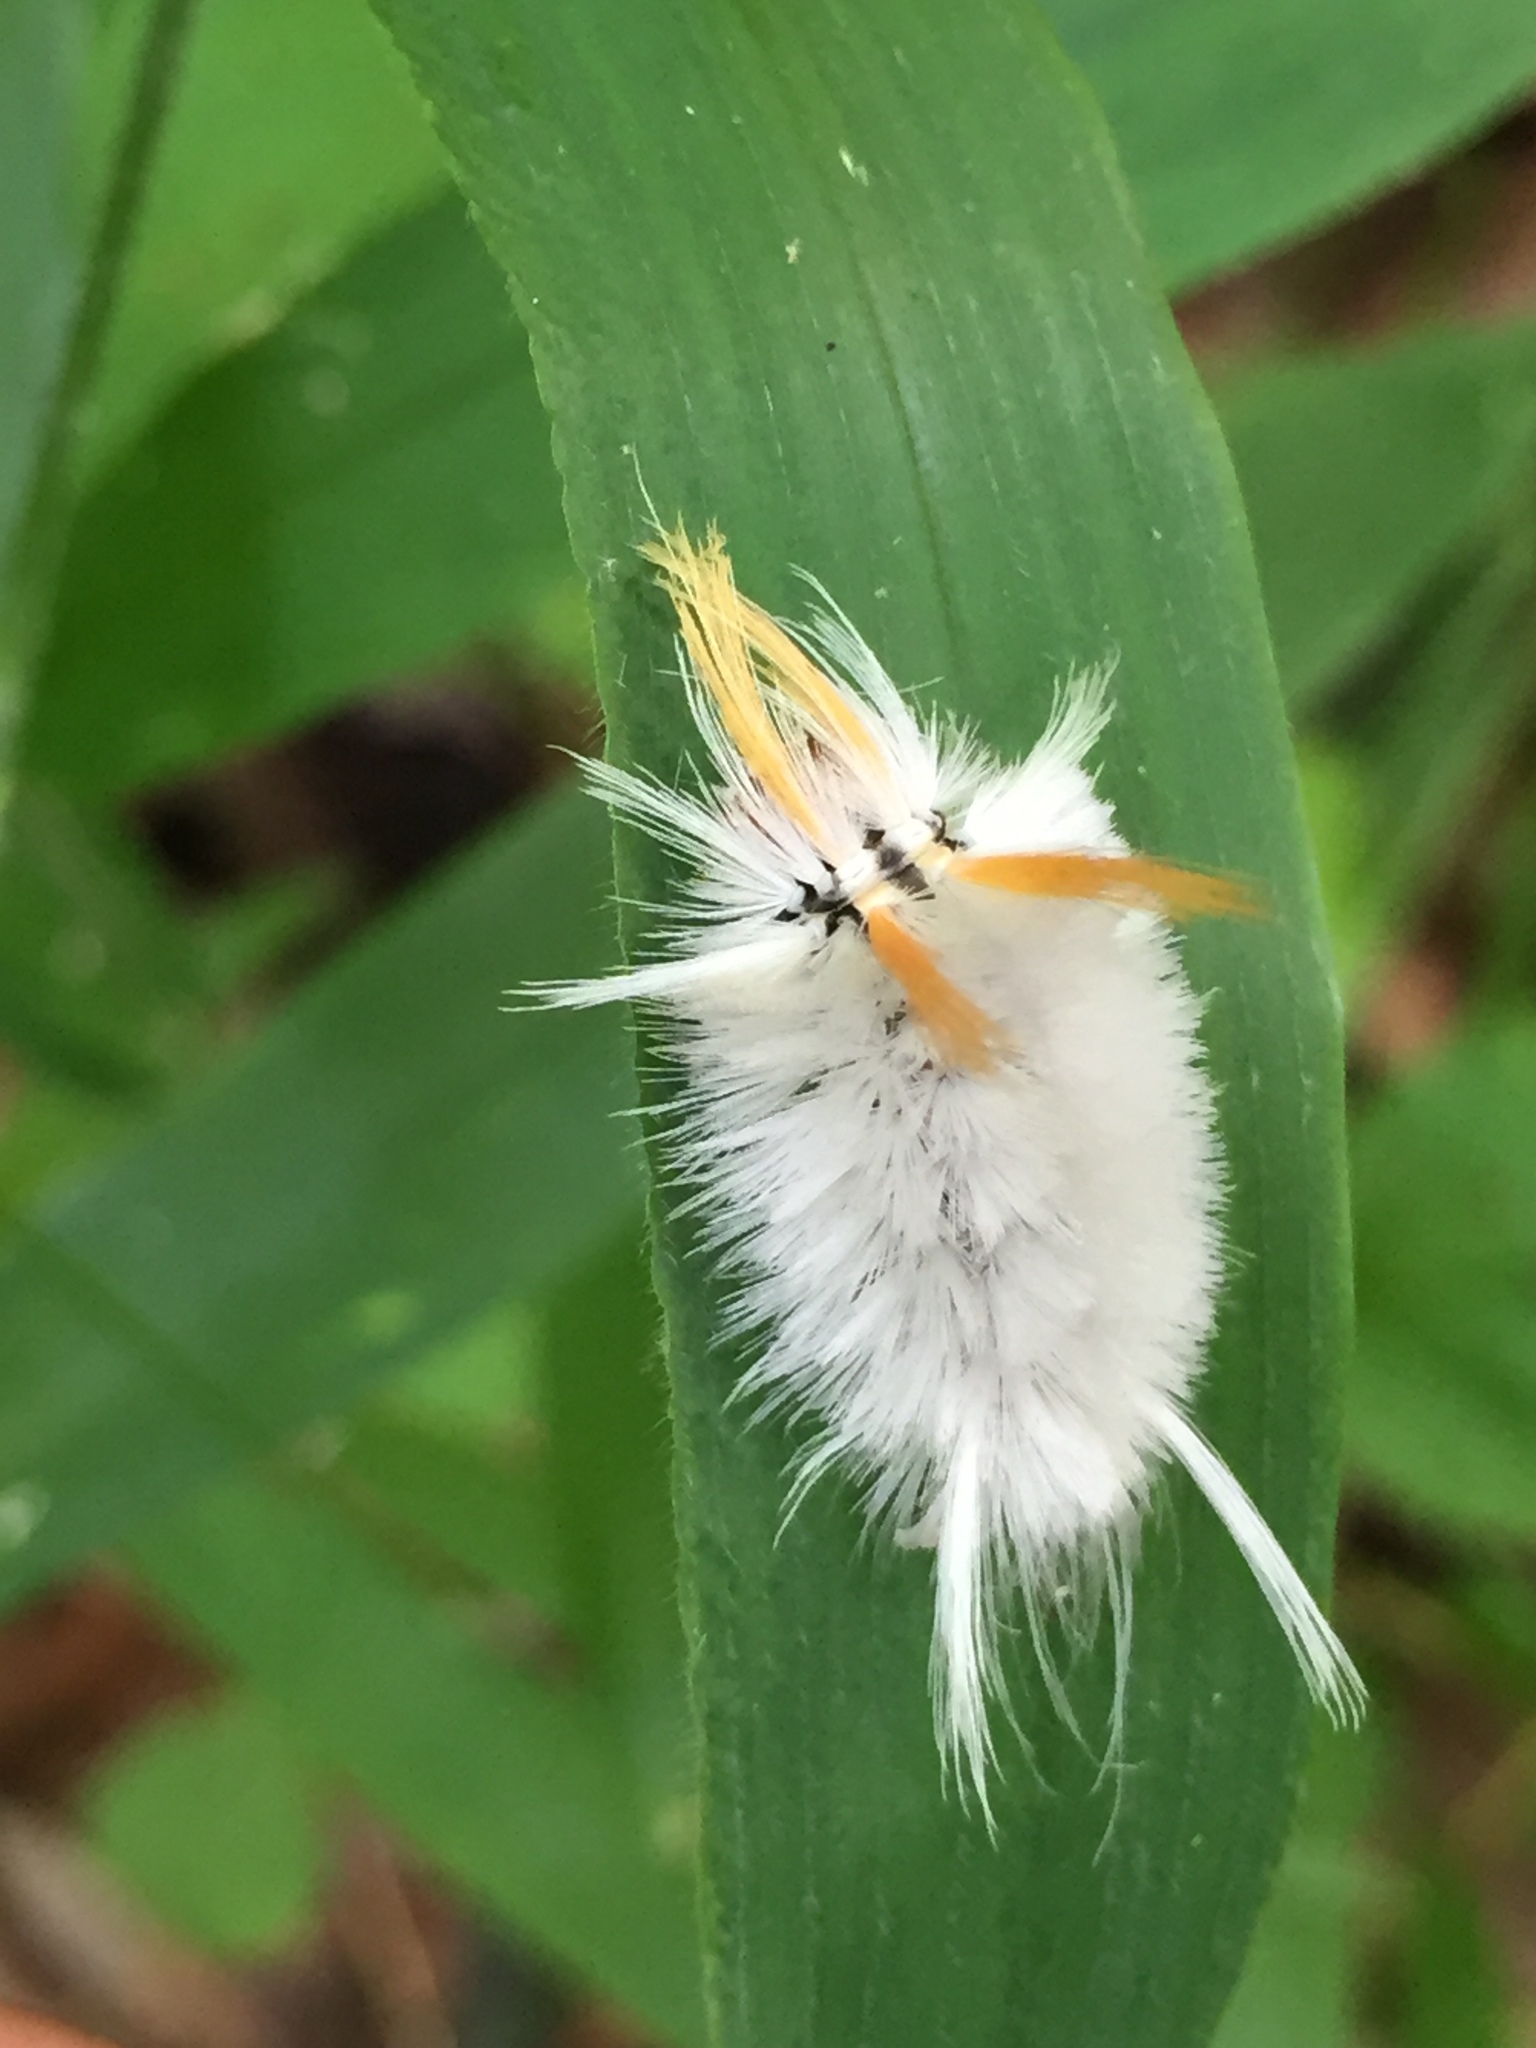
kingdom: Animalia
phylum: Arthropoda
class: Insecta
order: Lepidoptera
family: Erebidae
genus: Halysidota
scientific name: Halysidota harrisii
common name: Sycamore tussock moth
